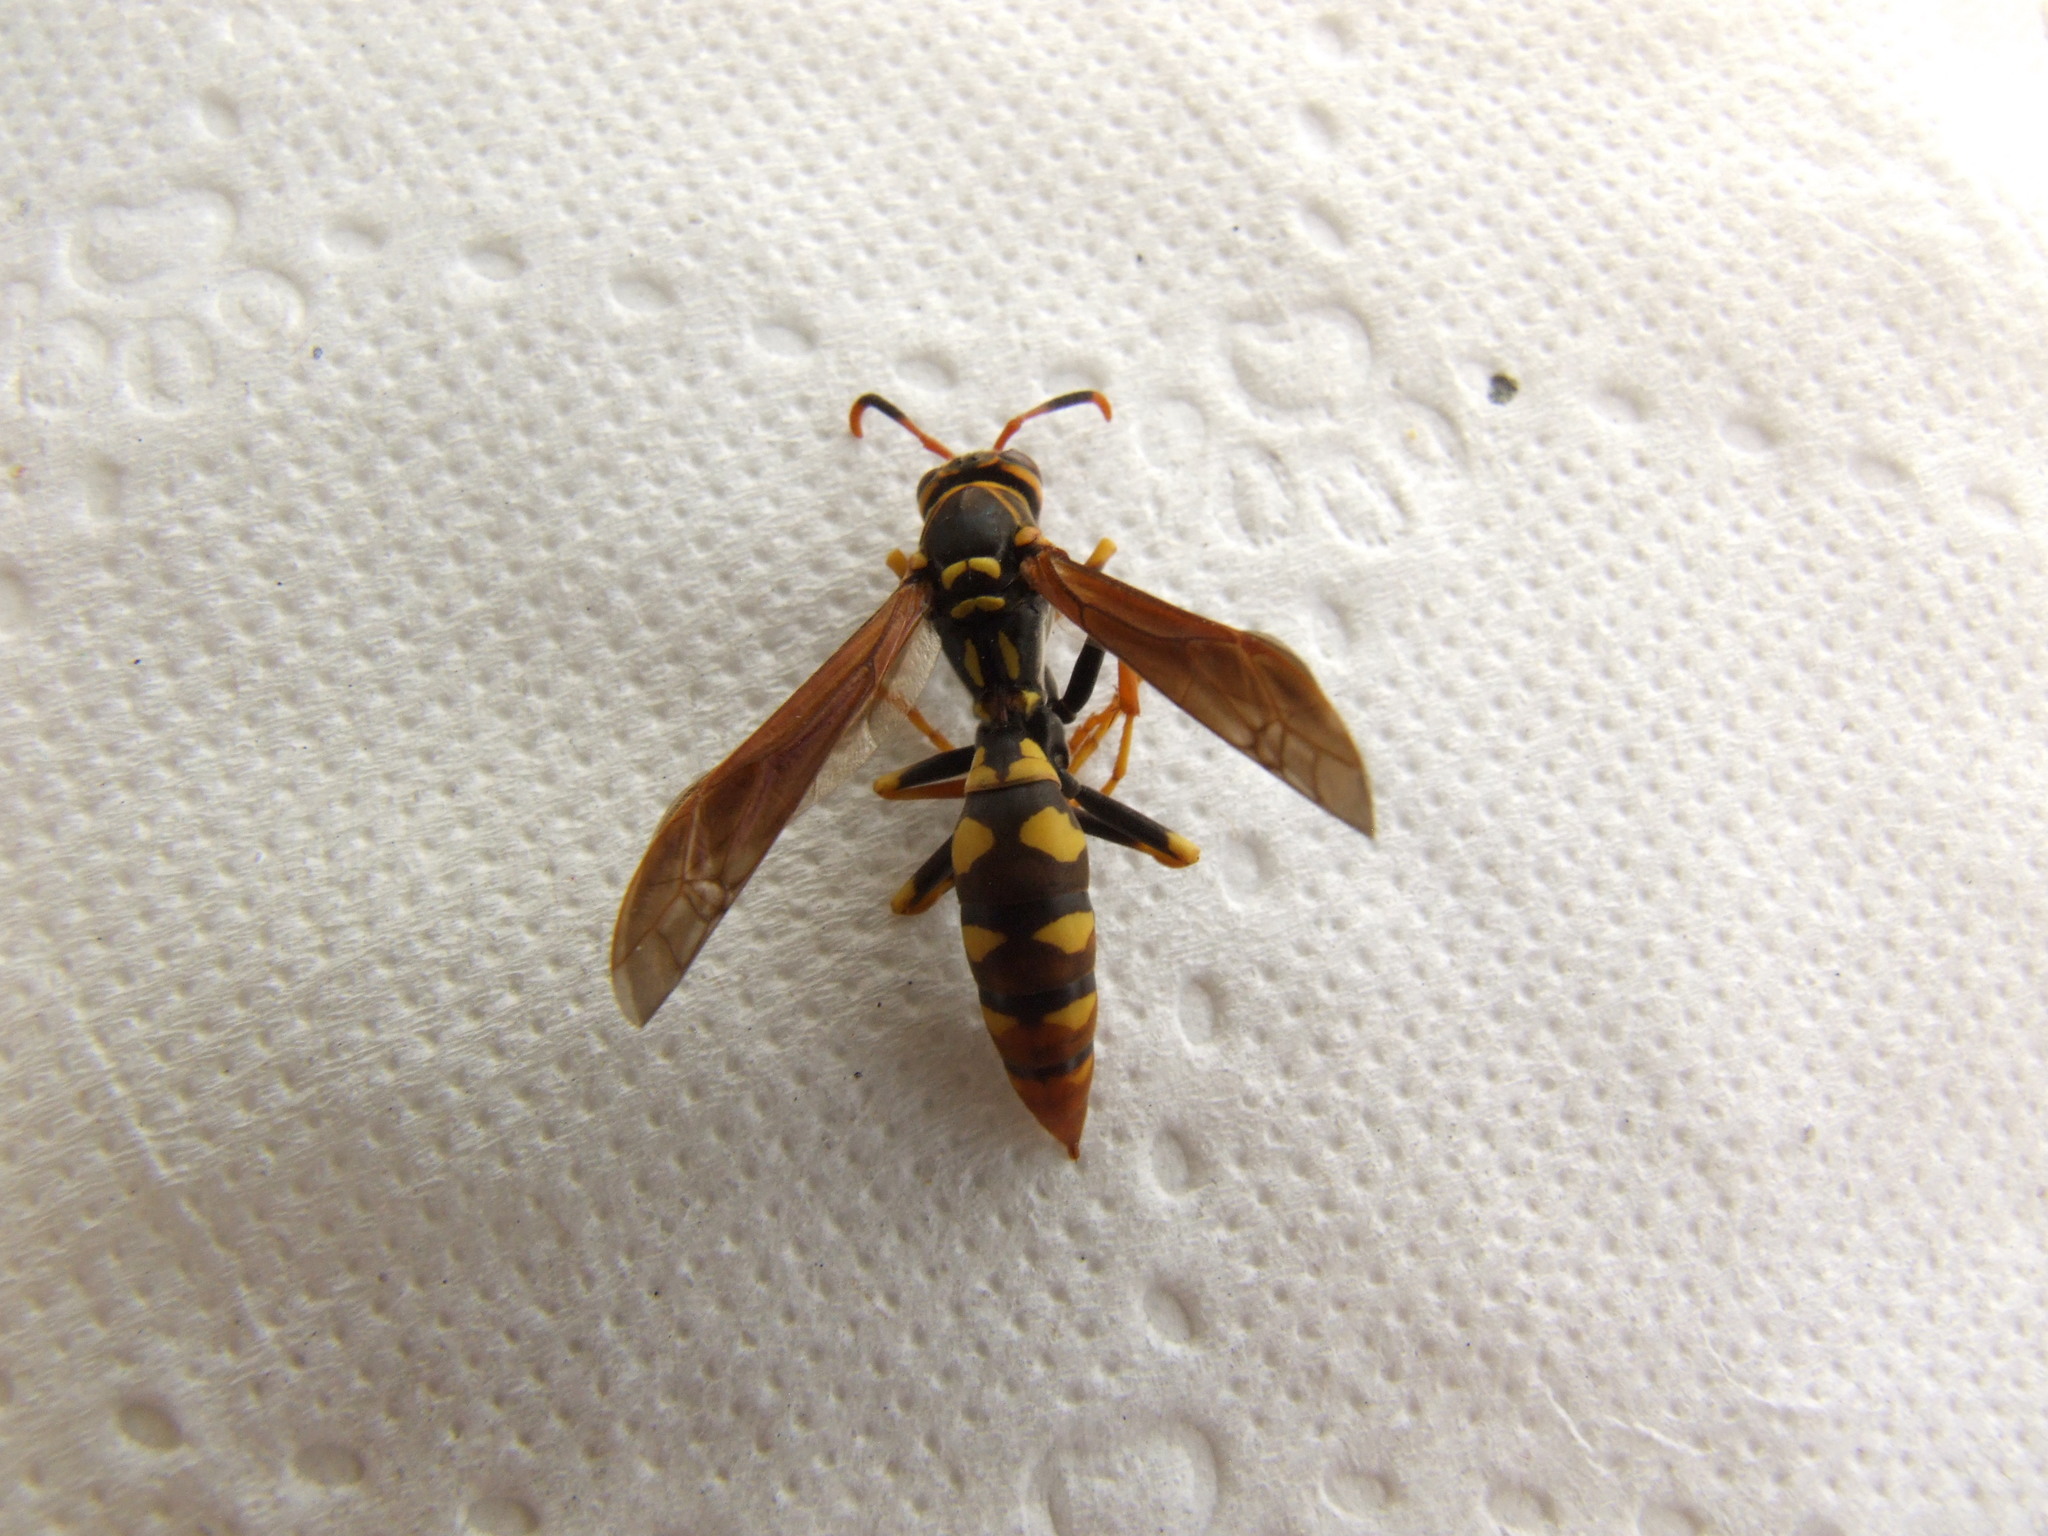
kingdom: Animalia
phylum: Arthropoda
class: Insecta
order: Hymenoptera
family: Eumenidae
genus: Polistes
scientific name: Polistes weyrauchorum
